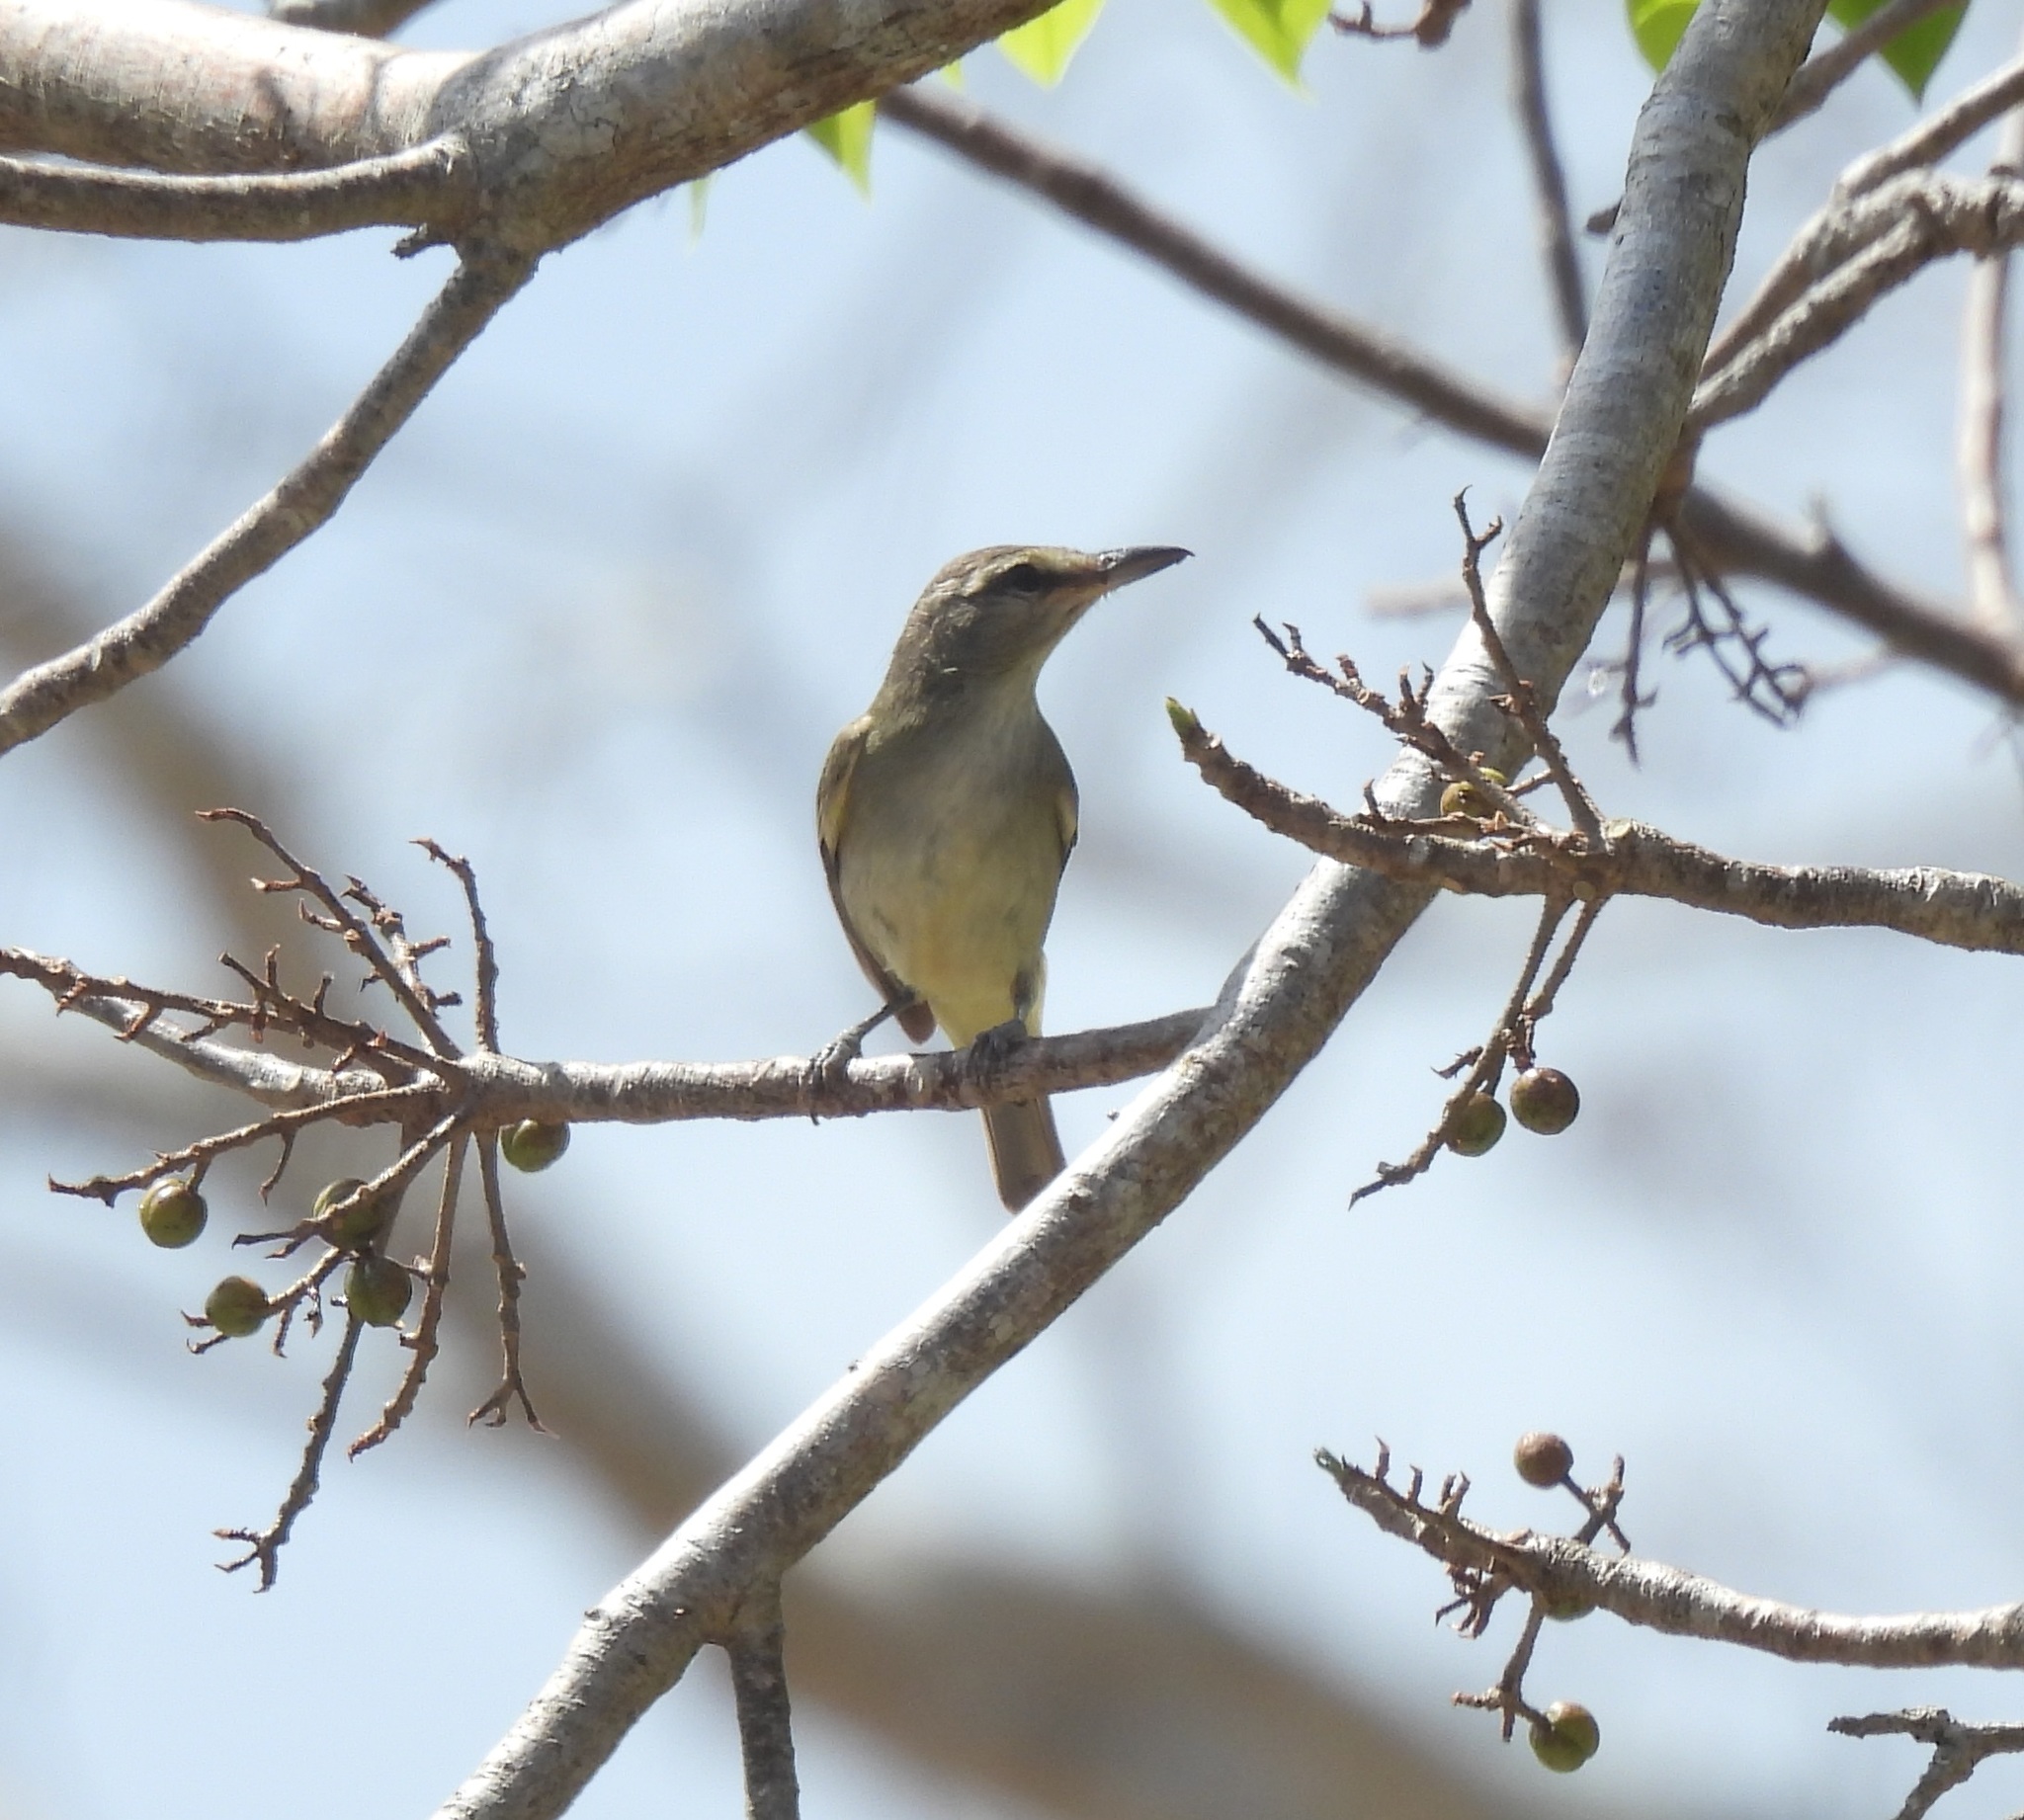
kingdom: Animalia
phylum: Chordata
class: Aves
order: Passeriformes
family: Vireonidae
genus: Vireo
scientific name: Vireo magister
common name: Yucatan vireo
